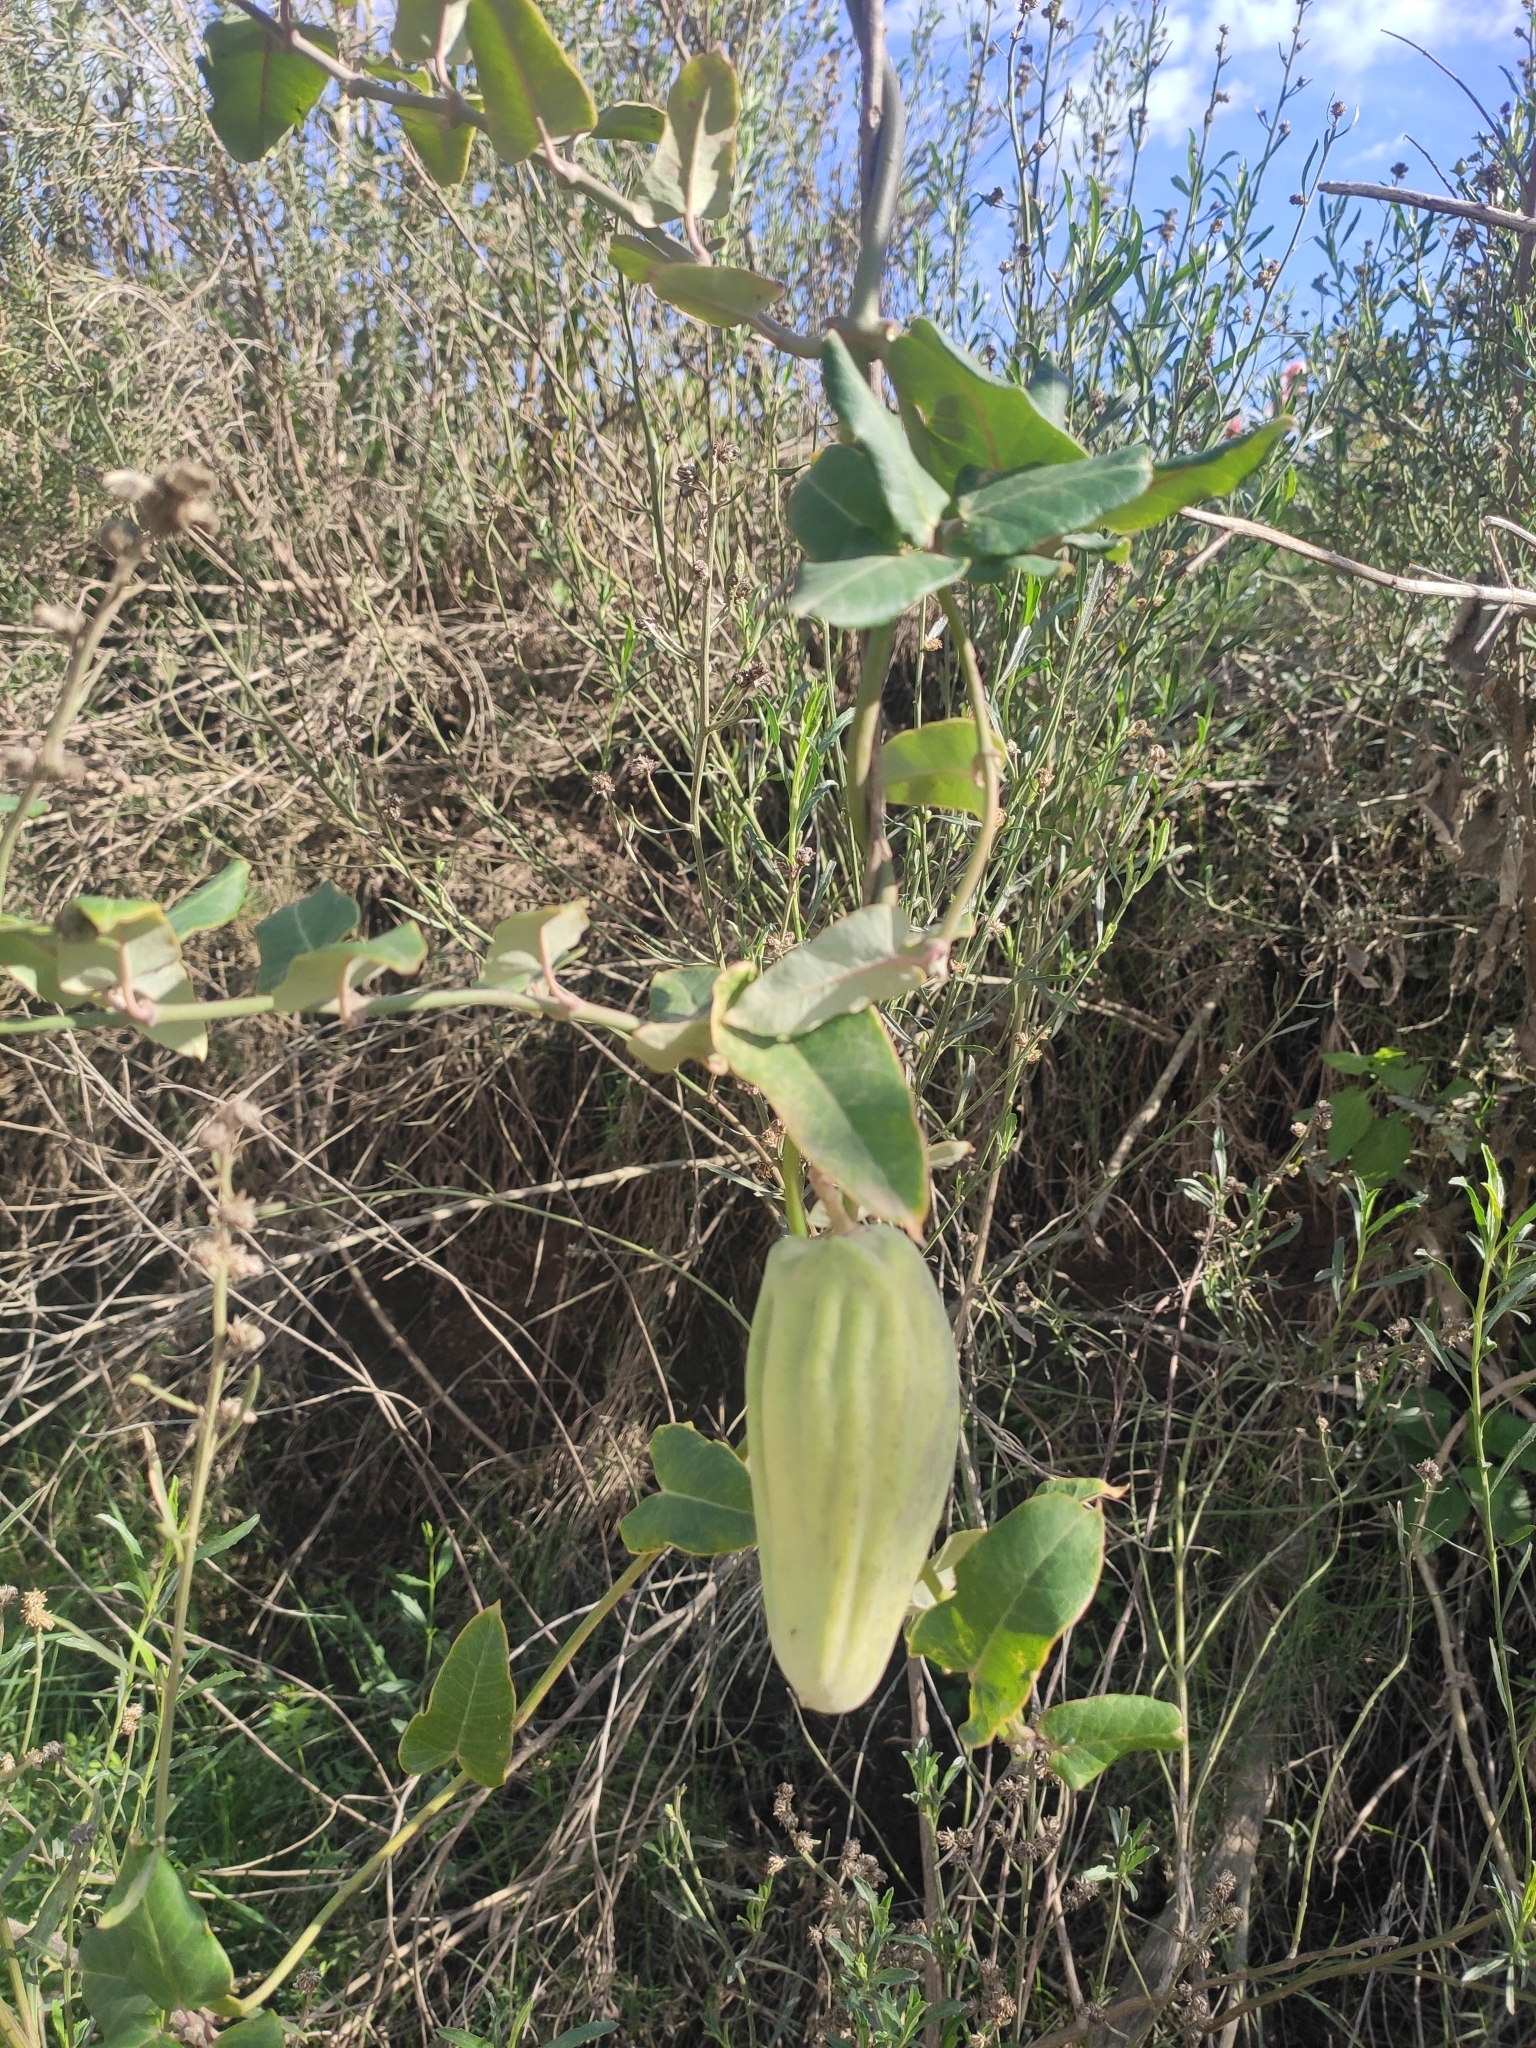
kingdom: Plantae
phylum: Tracheophyta
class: Magnoliopsida
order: Gentianales
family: Apocynaceae
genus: Araujia
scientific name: Araujia sericifera
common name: White bladderflower
